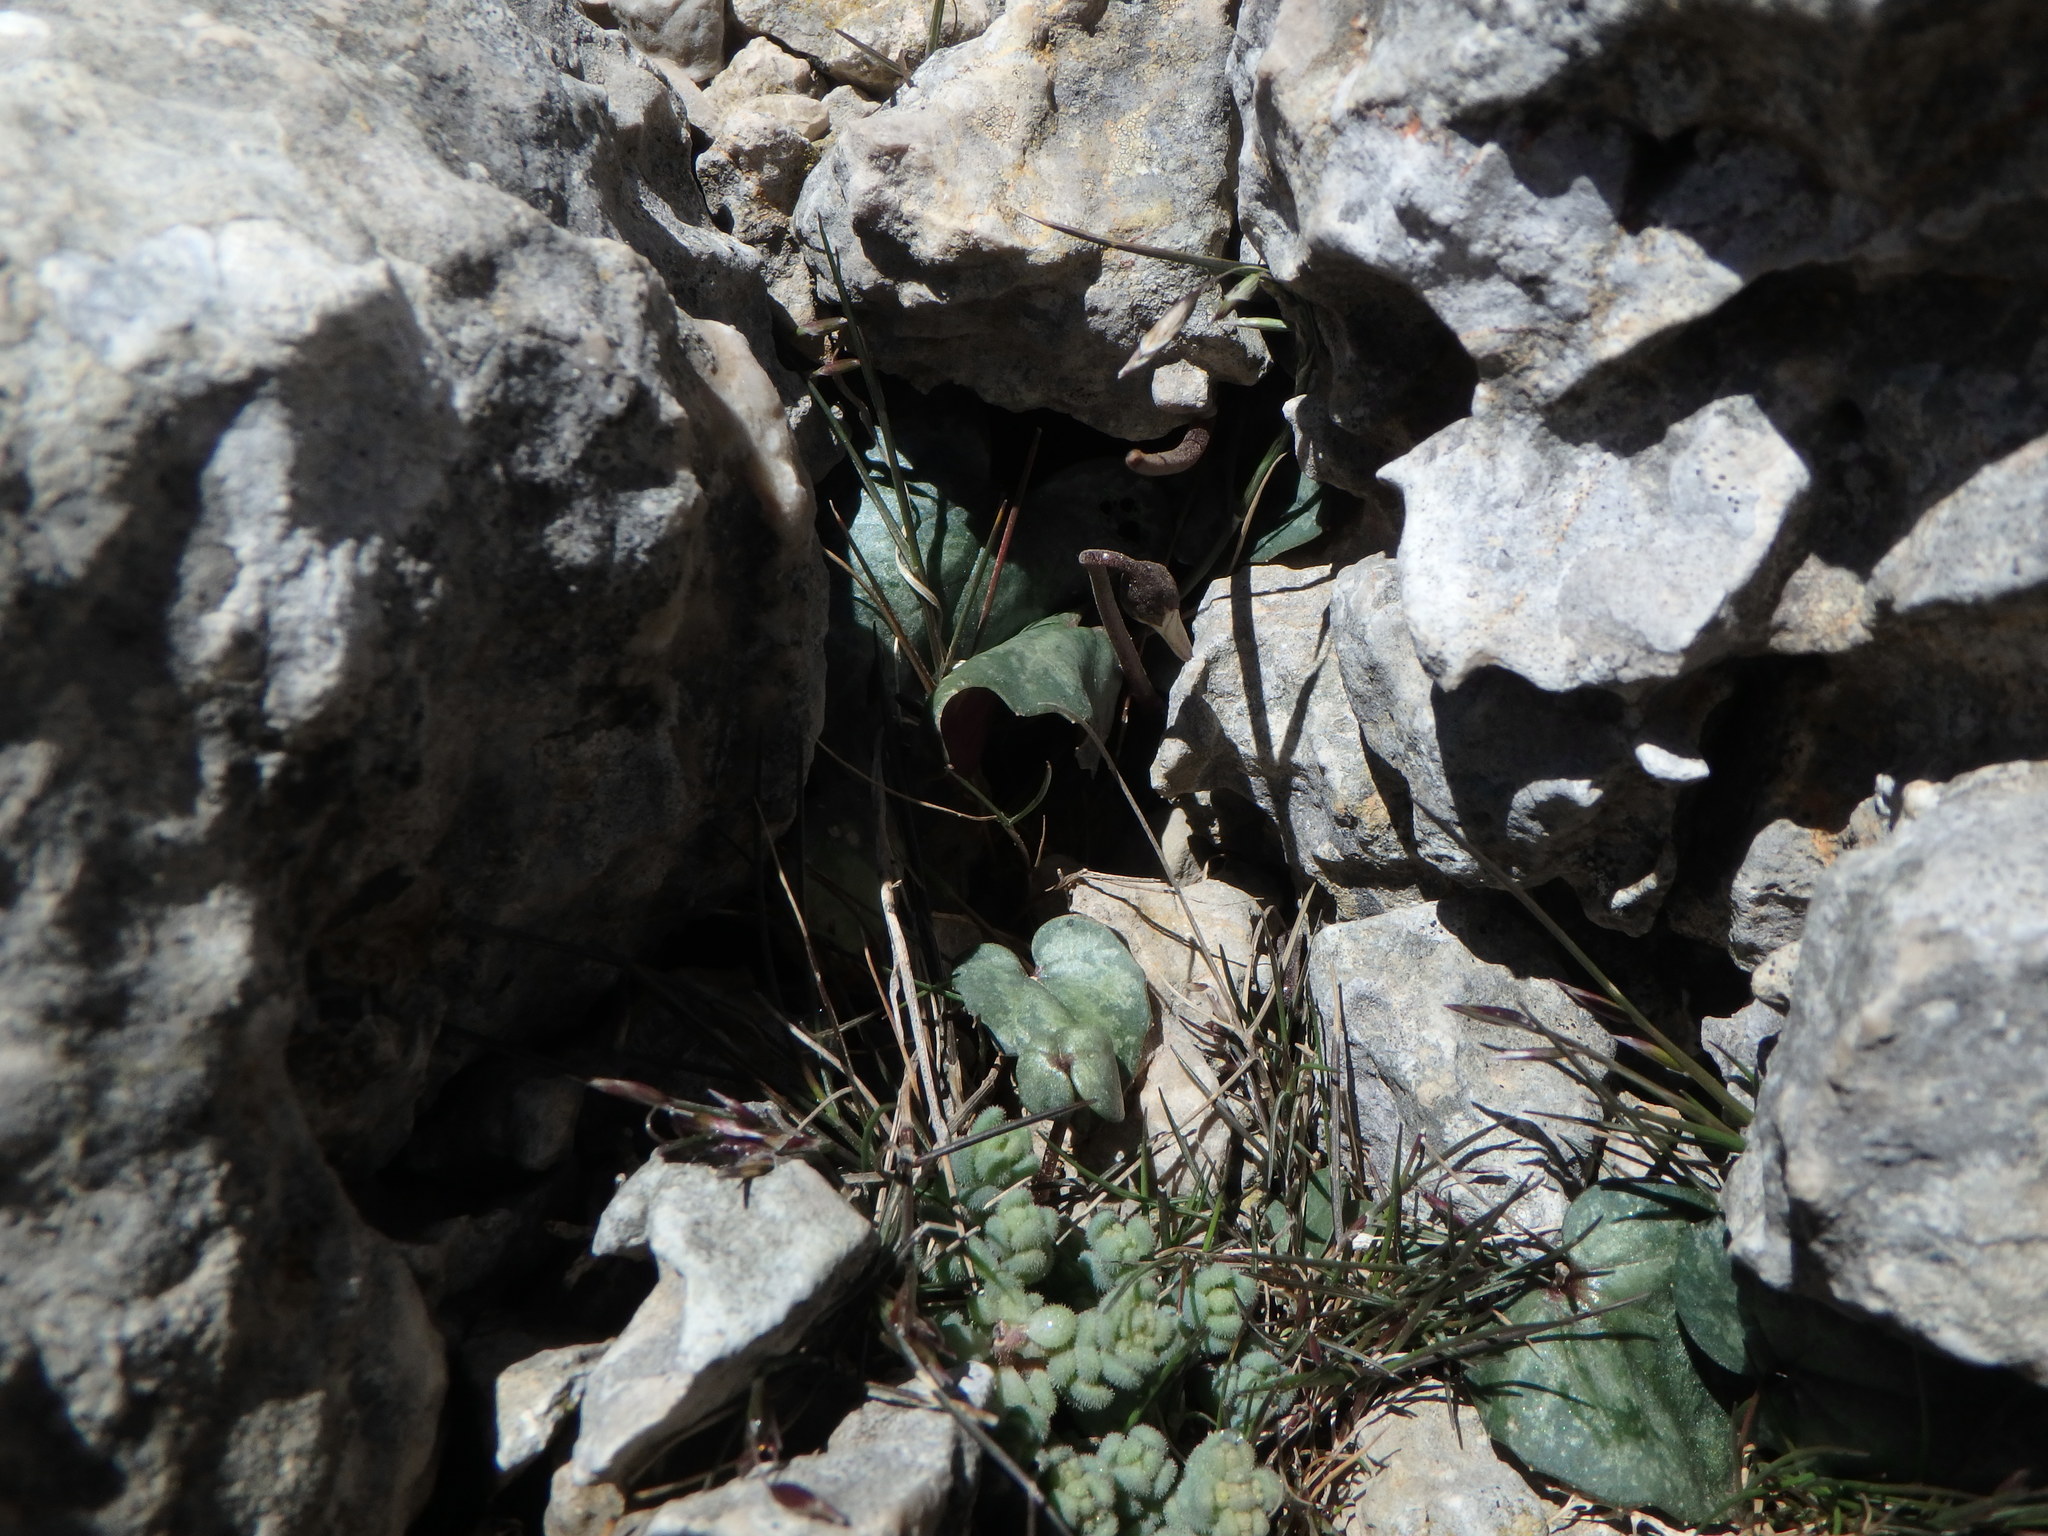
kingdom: Plantae
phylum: Tracheophyta
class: Magnoliopsida
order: Saxifragales
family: Crassulaceae
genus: Sedum
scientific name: Sedum dasyphyllum
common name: Thick-leaf stonecrop
